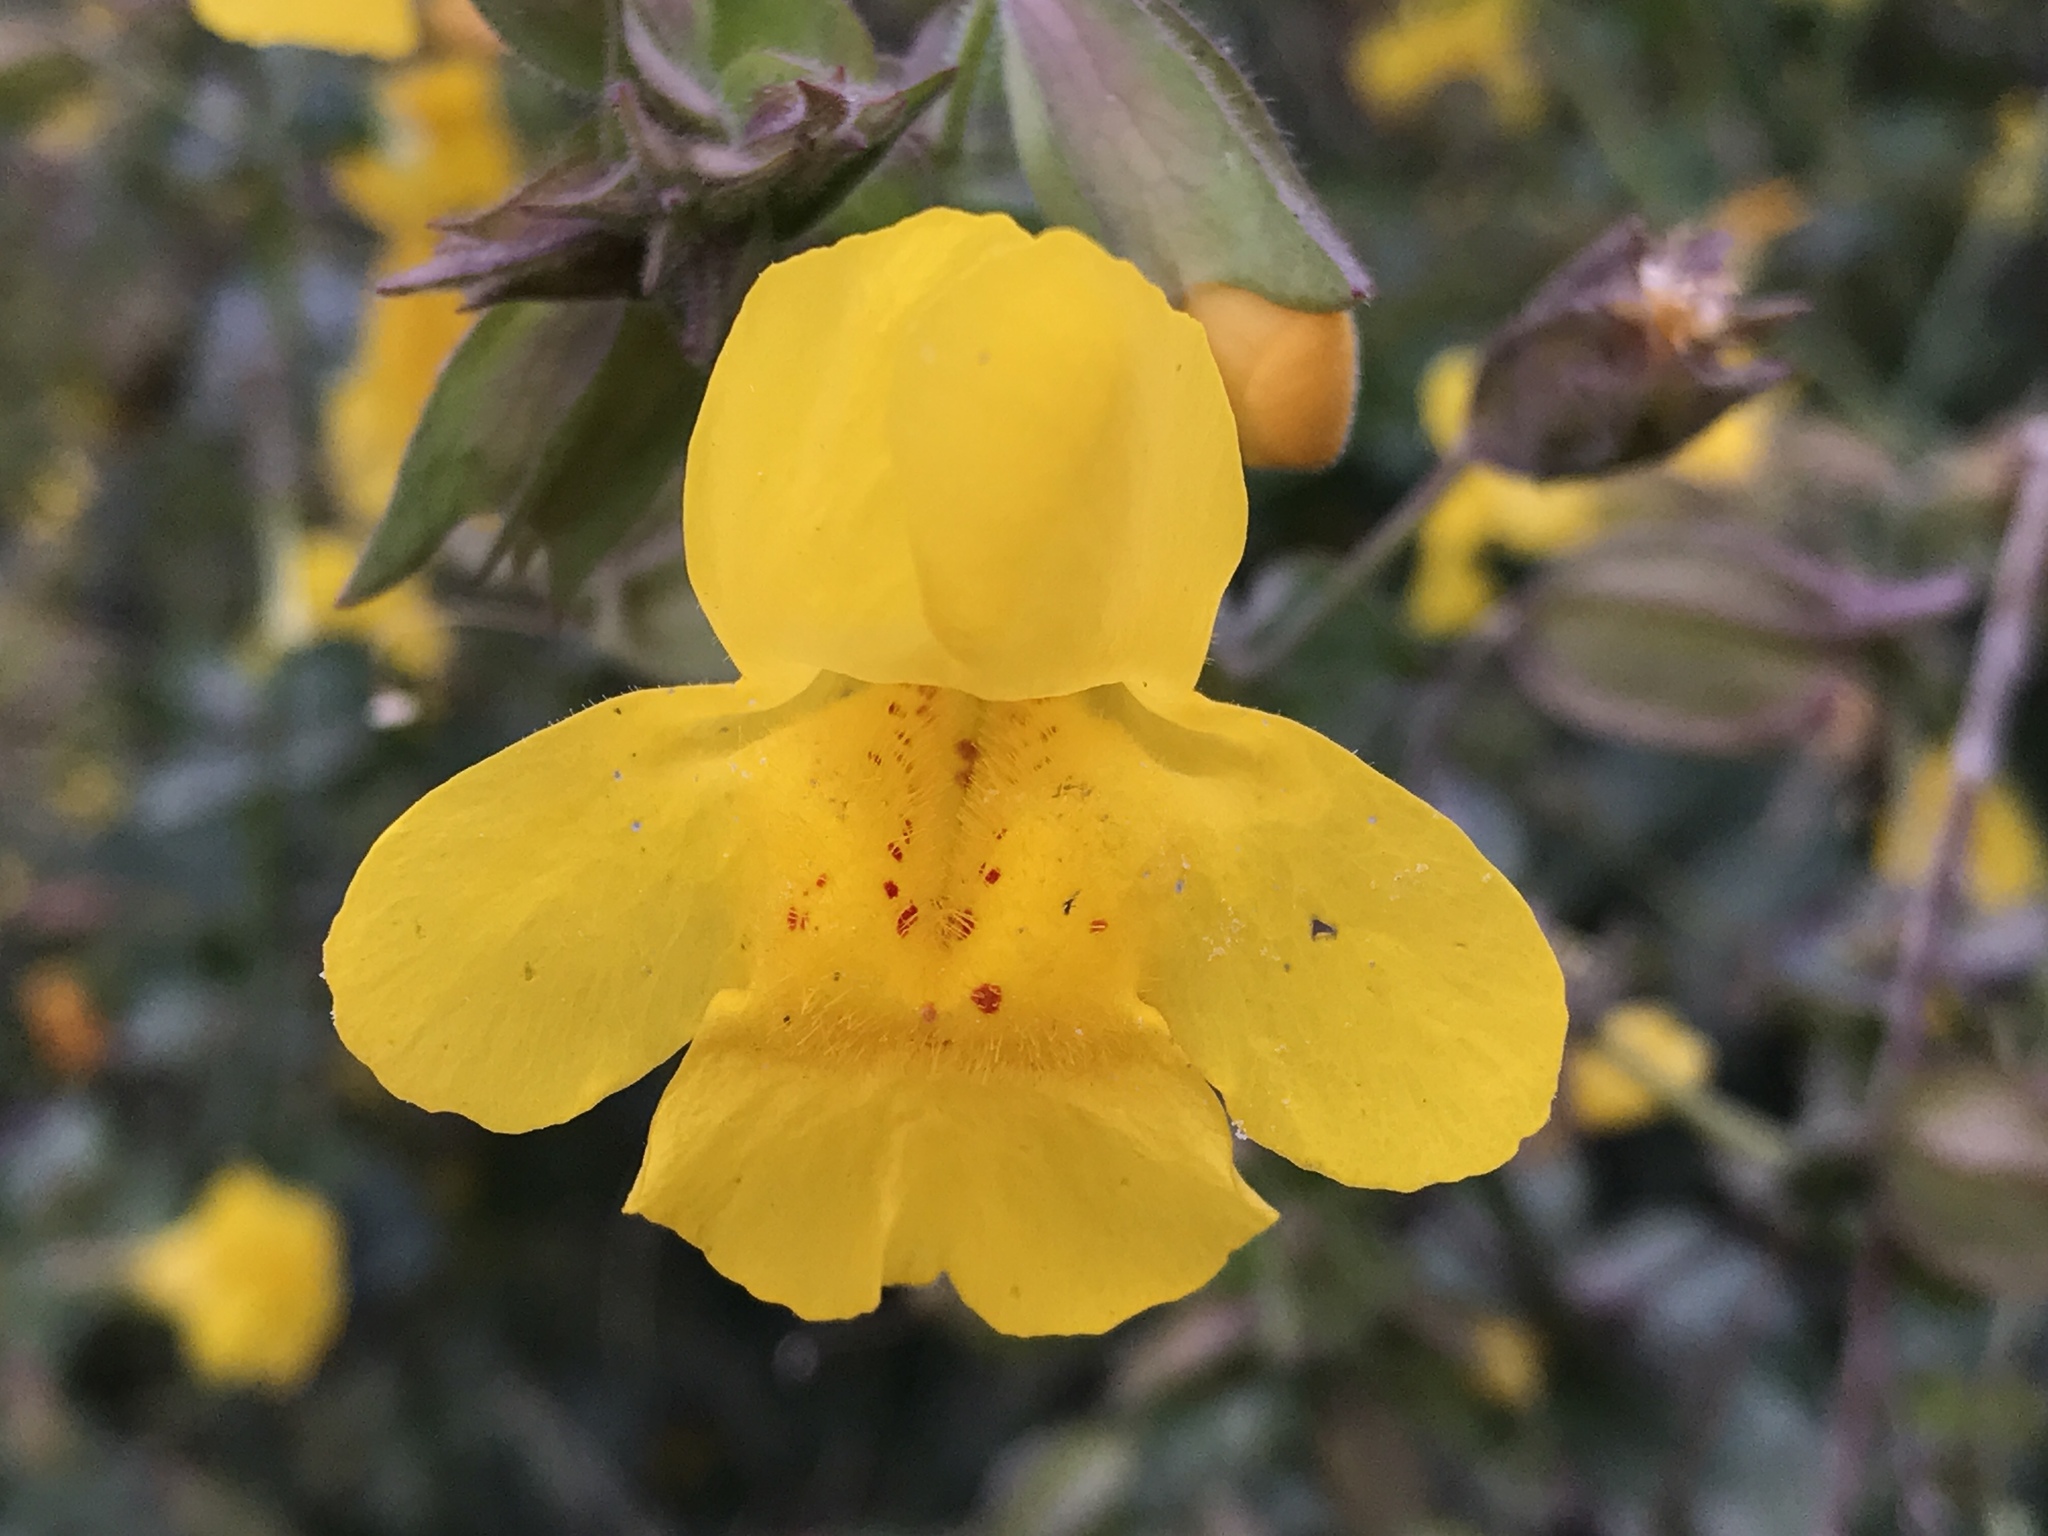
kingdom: Plantae
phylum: Tracheophyta
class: Magnoliopsida
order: Lamiales
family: Phrymaceae
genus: Erythranthe
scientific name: Erythranthe guttata
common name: Monkeyflower
